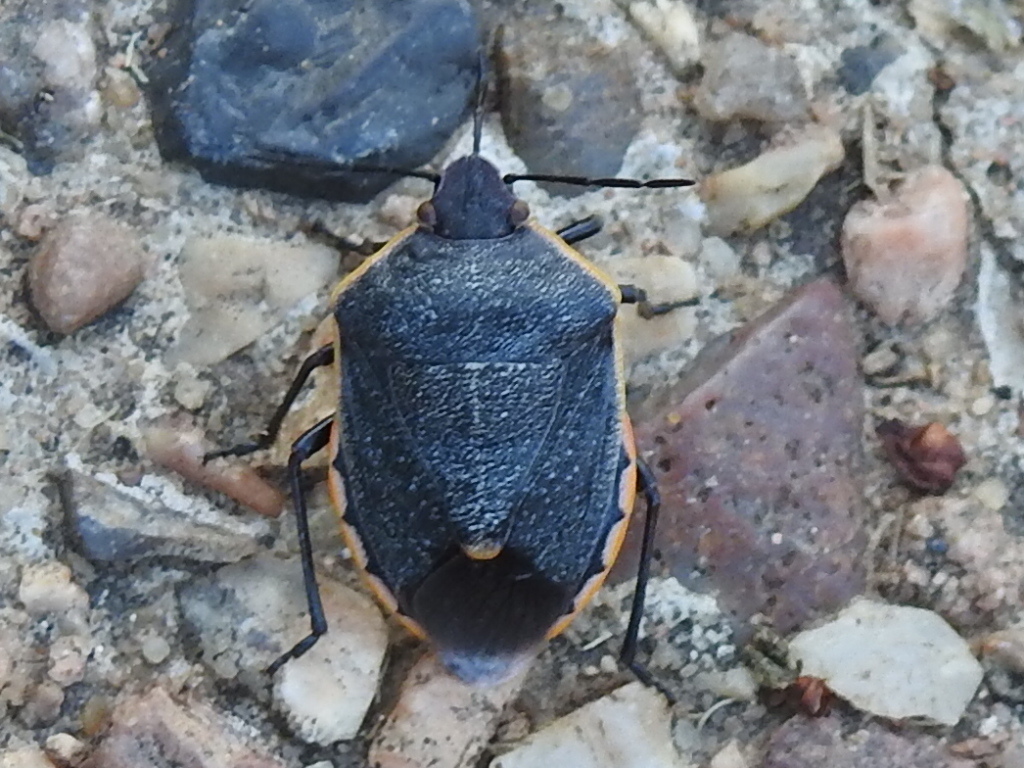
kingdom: Animalia
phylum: Arthropoda
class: Insecta
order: Hemiptera
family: Pentatomidae
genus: Chlorochroa
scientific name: Chlorochroa ligata
